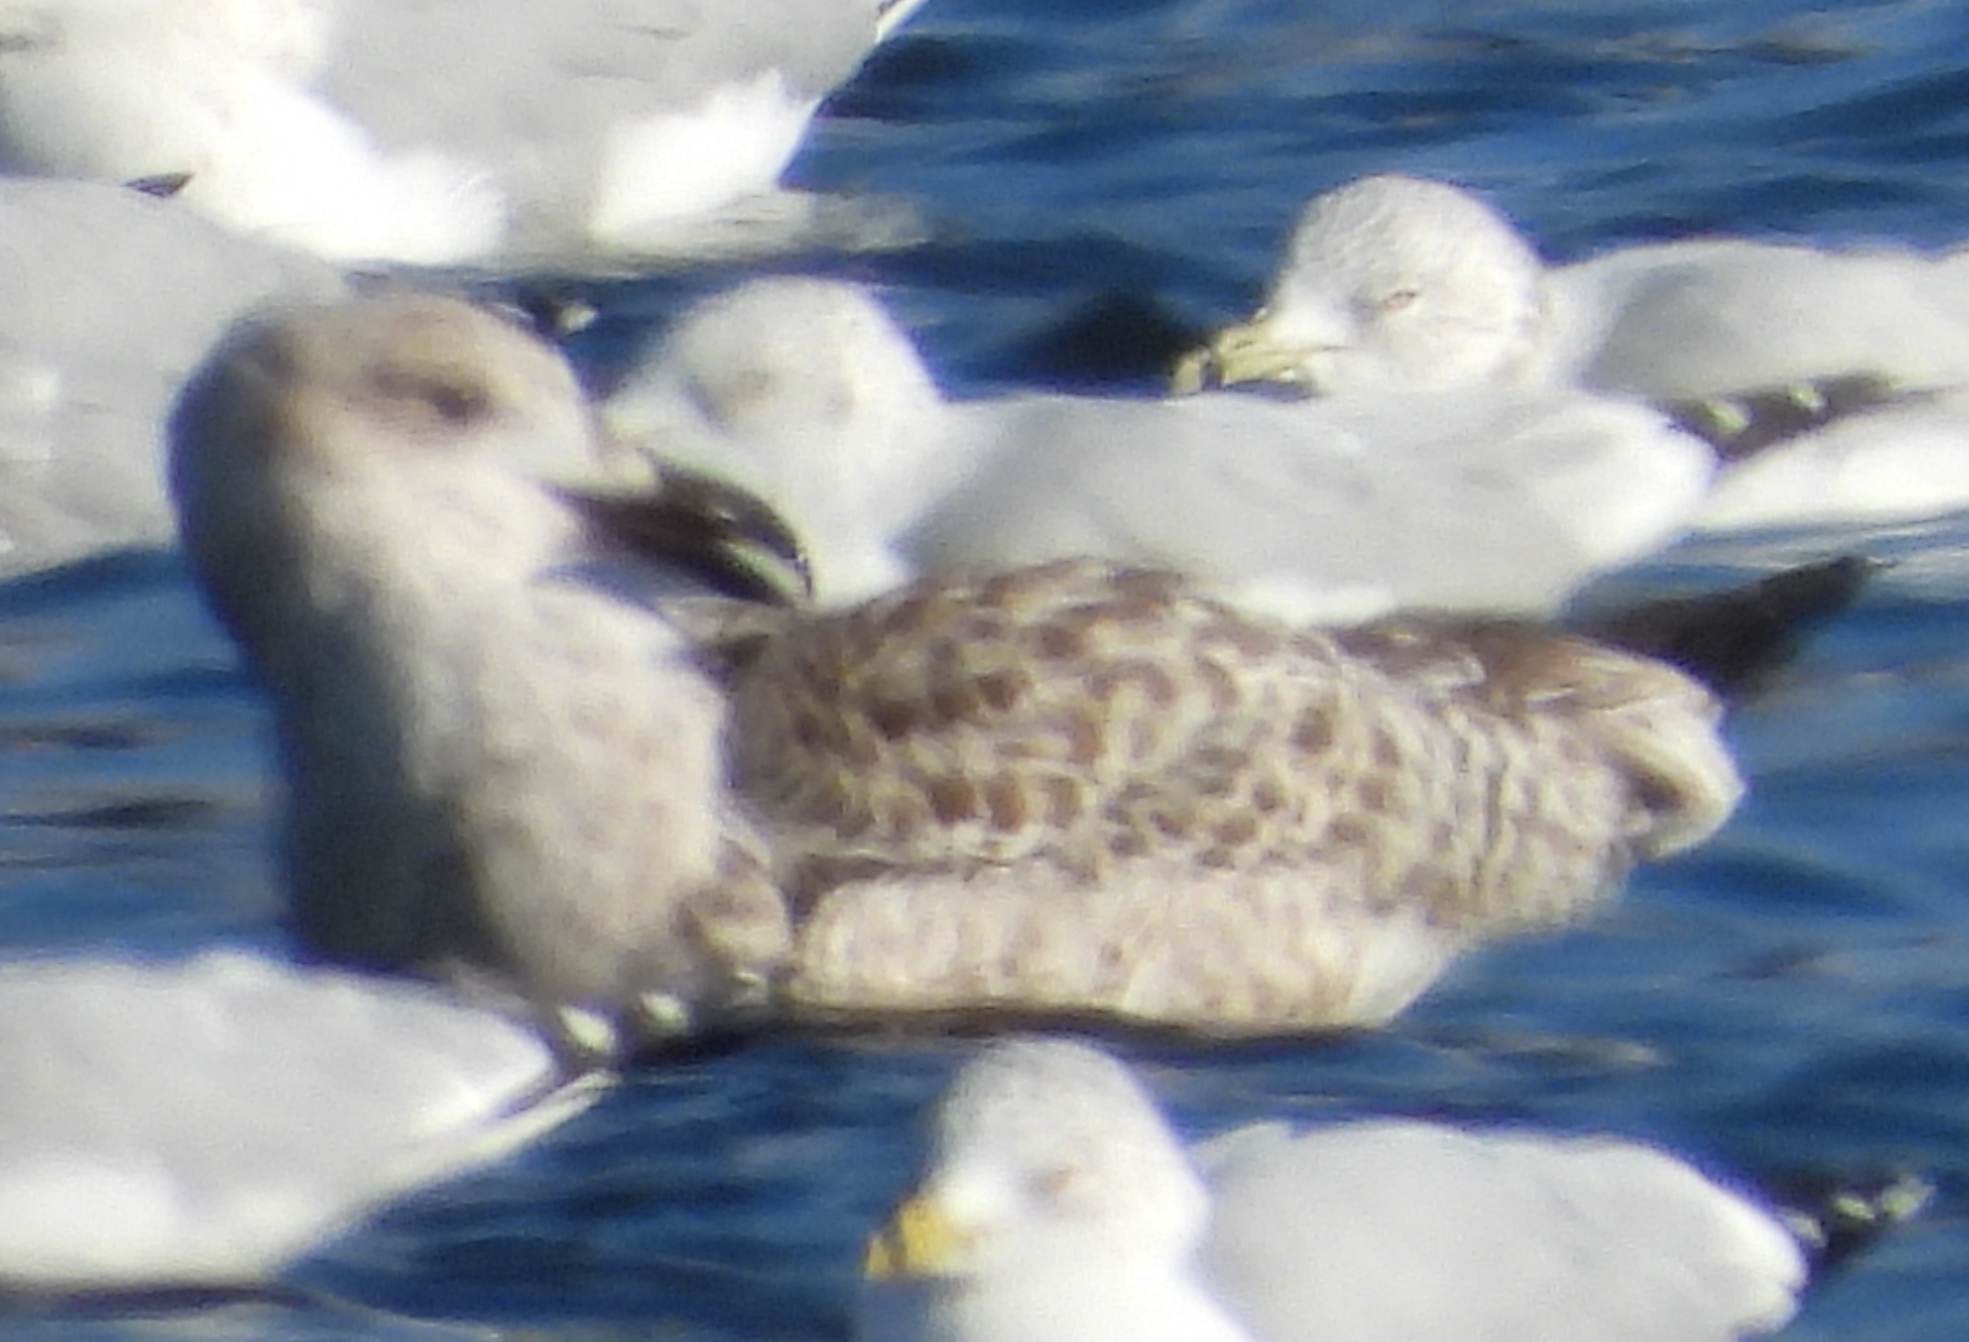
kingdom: Animalia
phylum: Chordata
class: Aves
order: Charadriiformes
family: Laridae
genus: Larus
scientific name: Larus marinus
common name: Great black-backed gull
